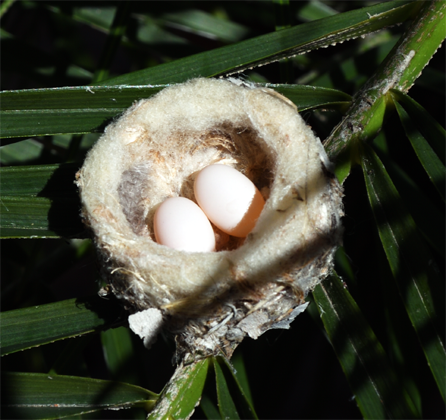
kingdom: Animalia
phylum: Chordata
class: Aves
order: Apodiformes
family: Trochilidae
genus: Calypte
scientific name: Calypte costae
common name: Costa's hummingbird
